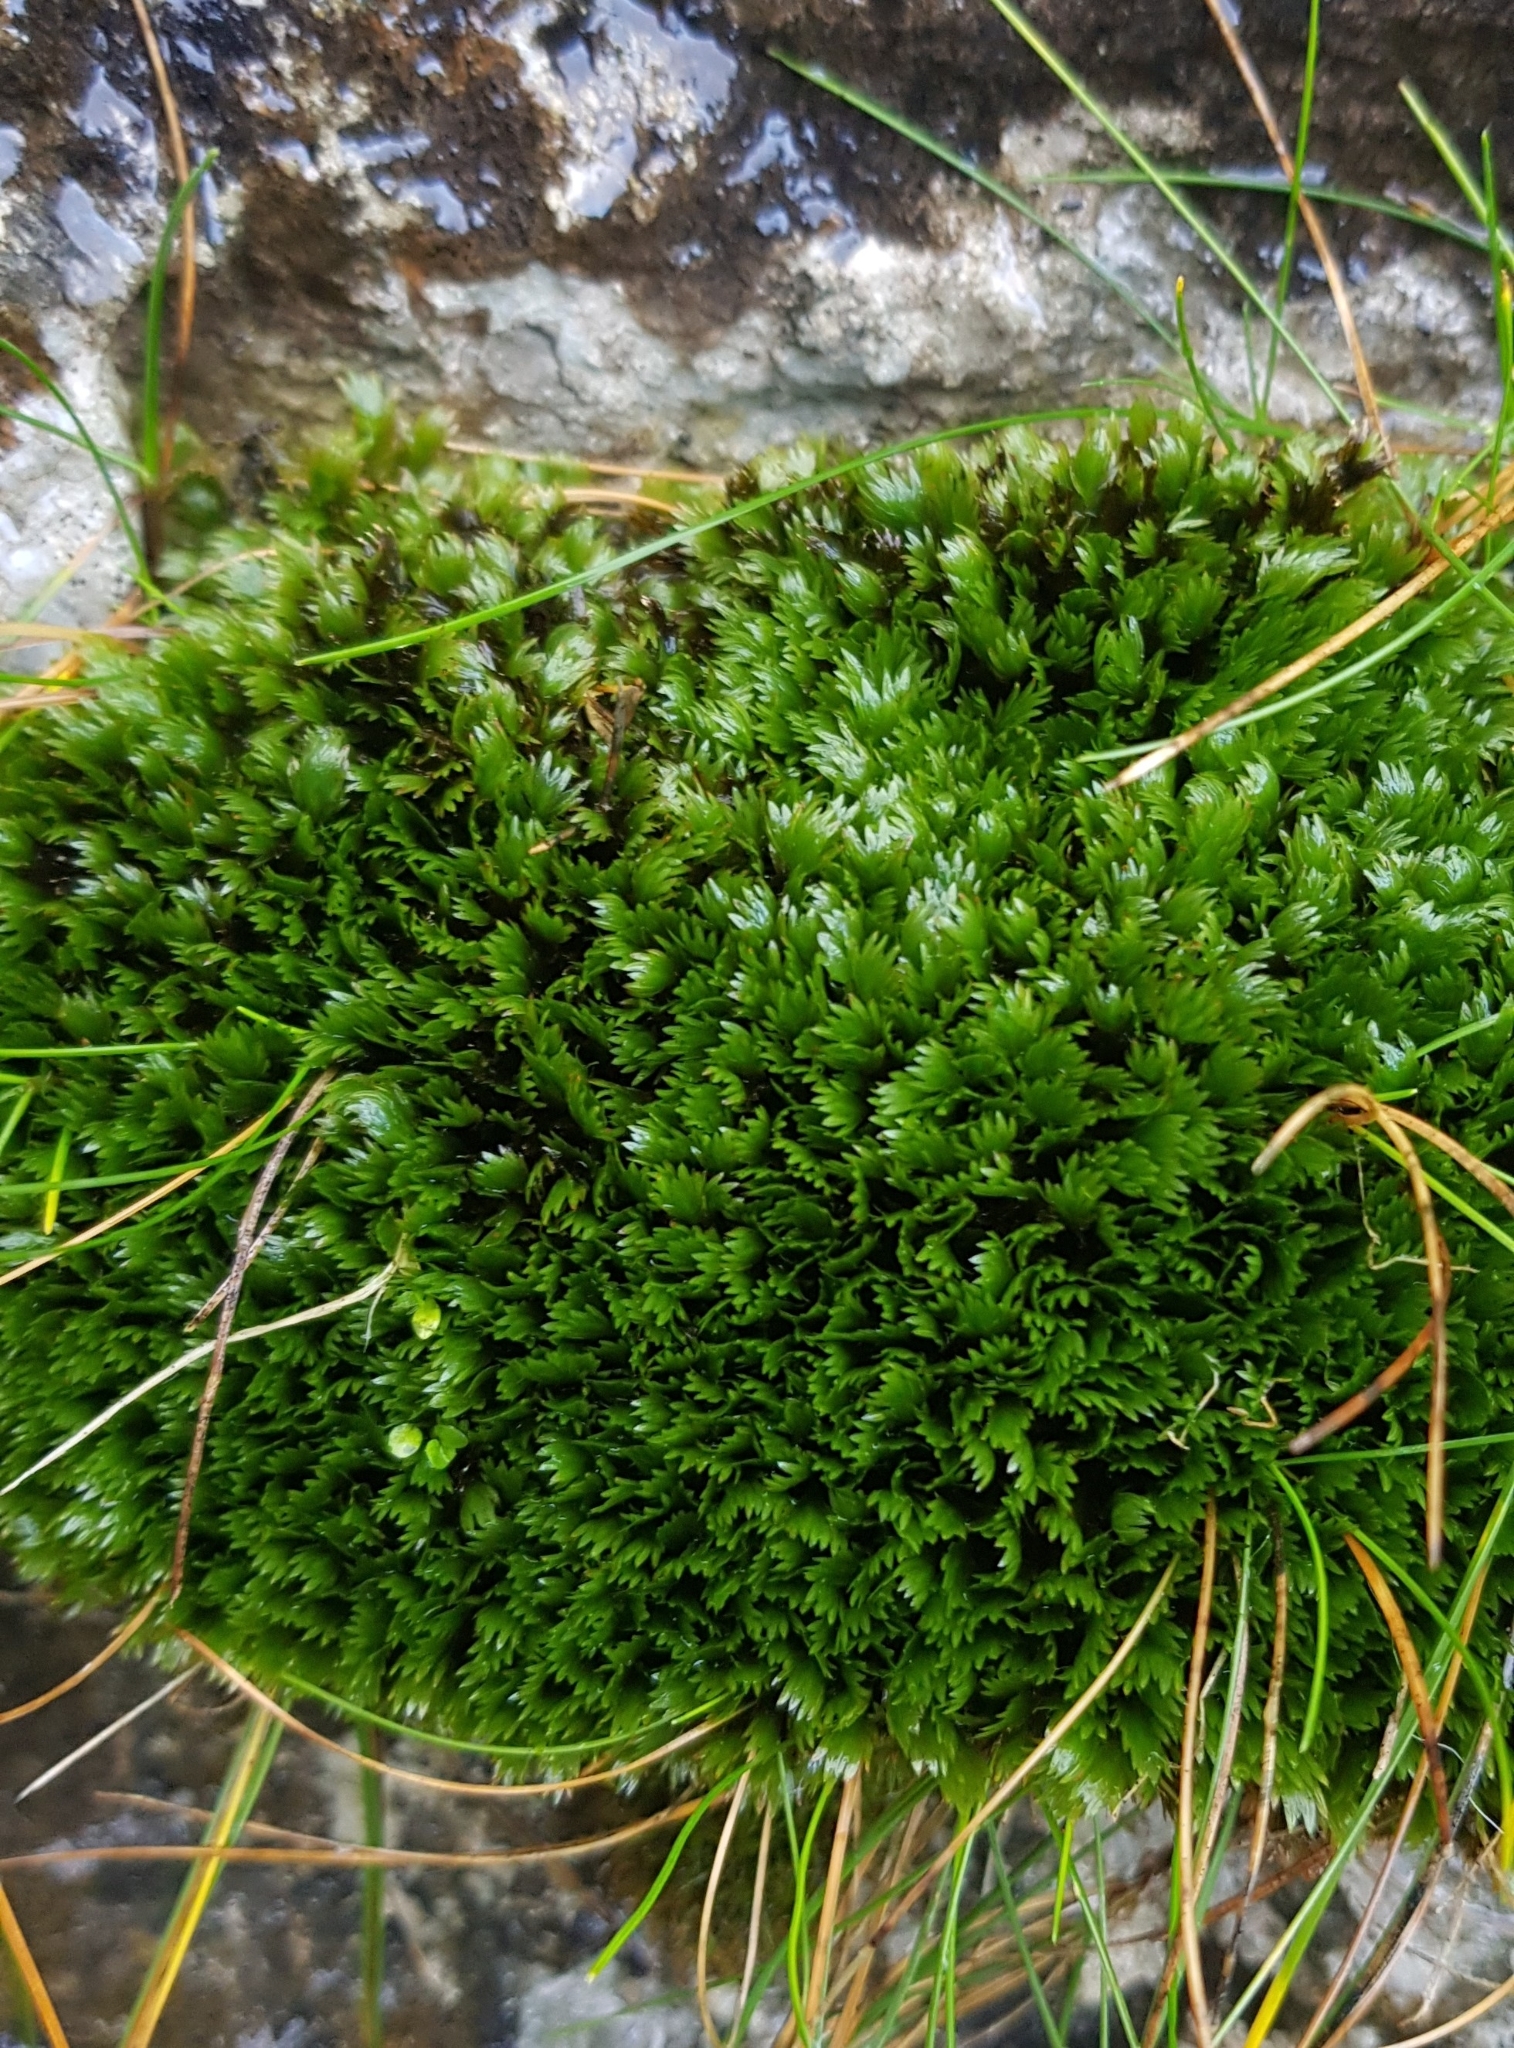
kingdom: Plantae
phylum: Bryophyta
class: Bryopsida
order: Dicranales
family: Fissidentaceae
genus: Fissidens
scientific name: Fissidens dubius
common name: Rock pocket moss
